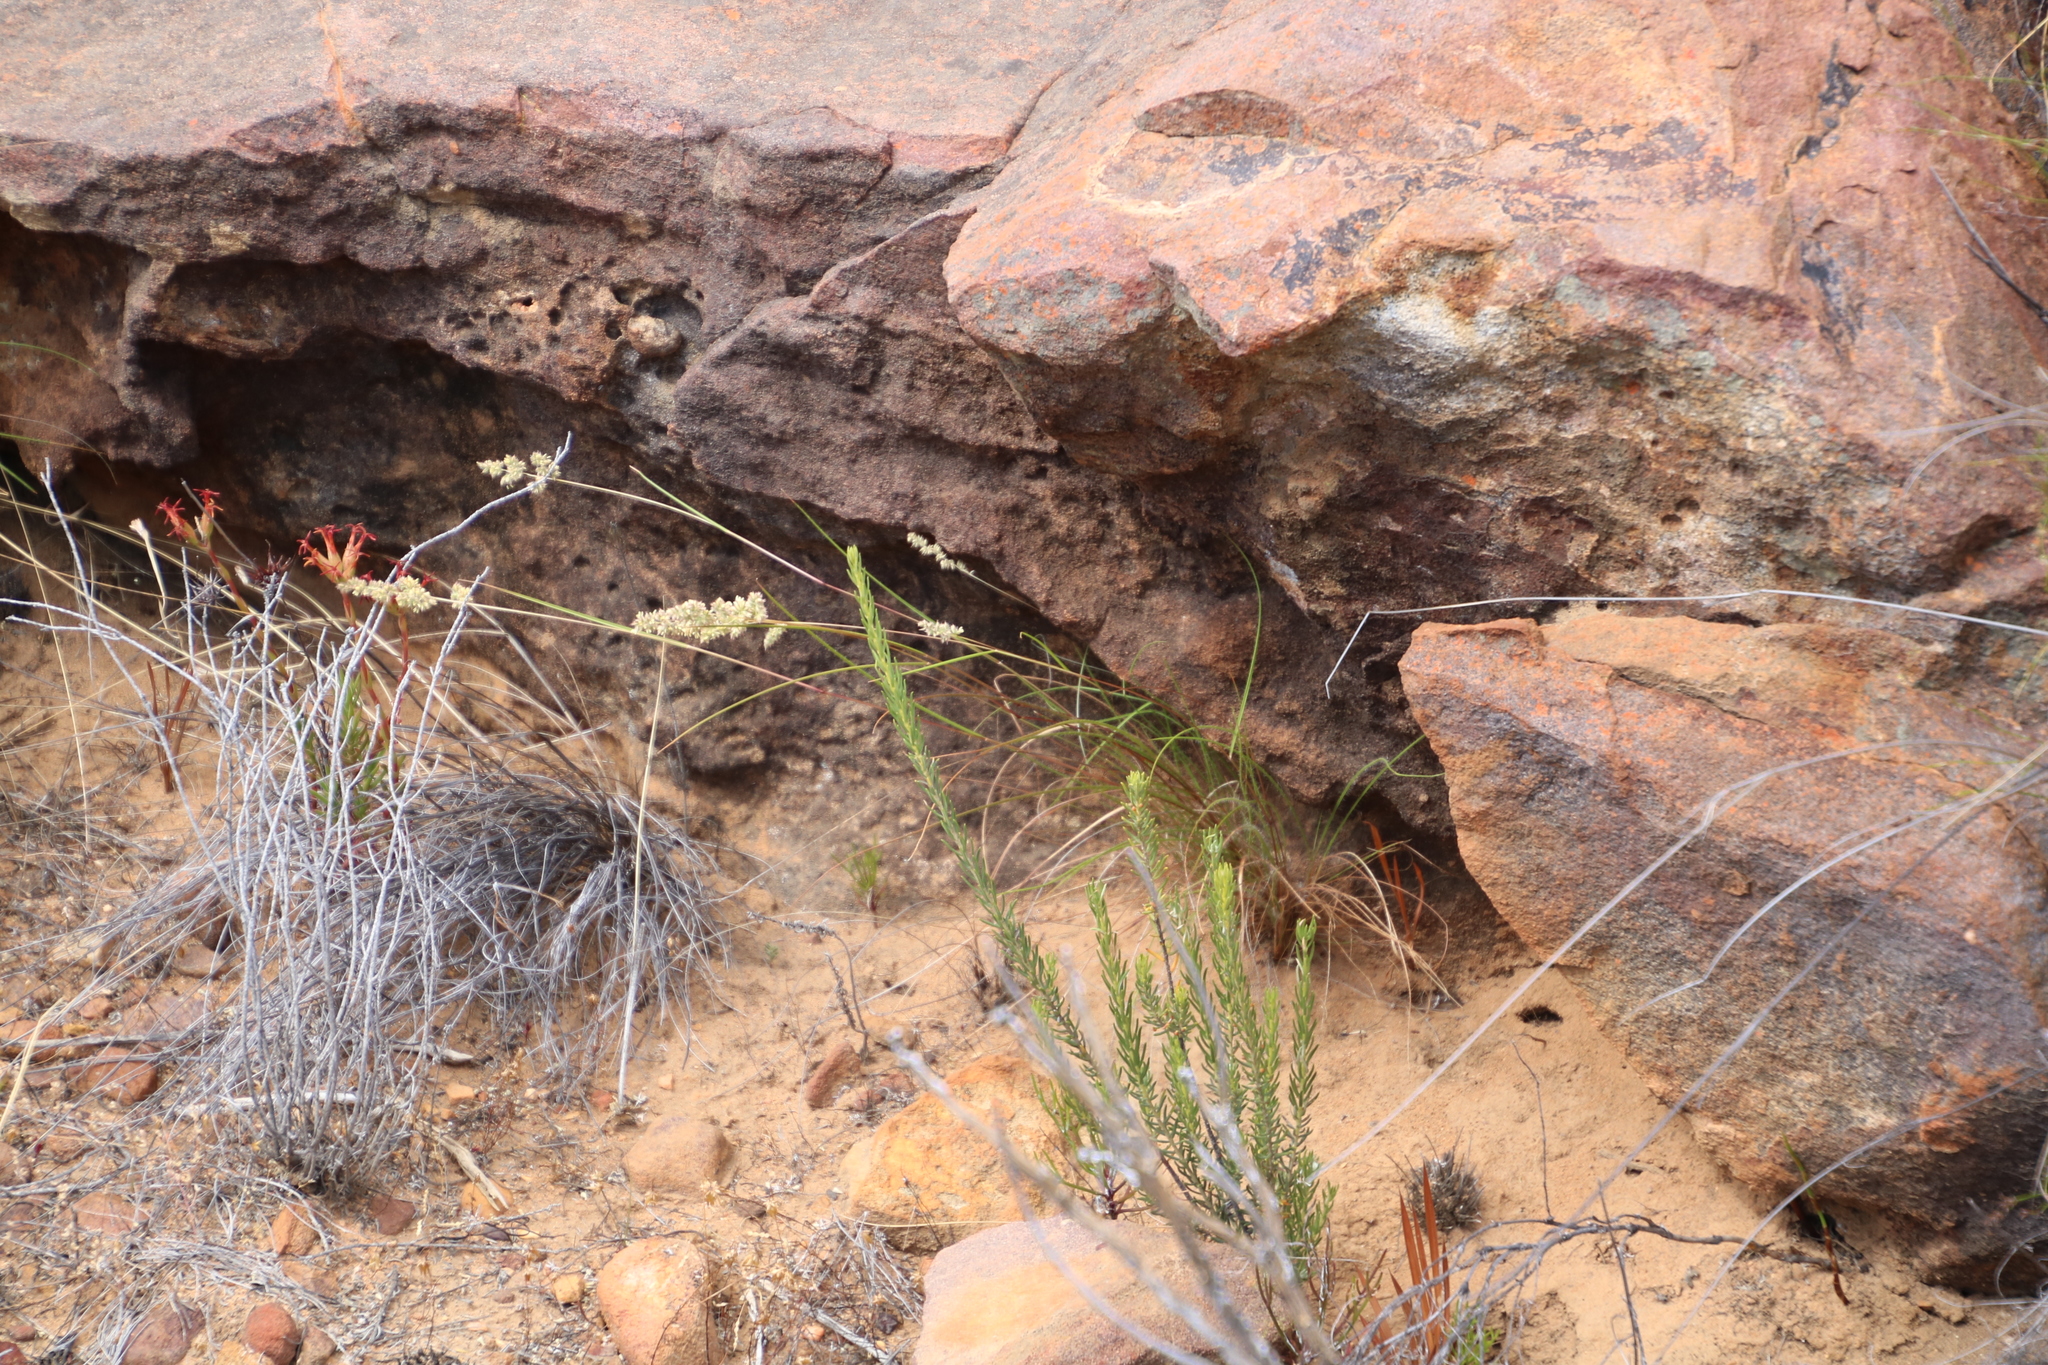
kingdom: Plantae
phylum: Tracheophyta
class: Liliopsida
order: Poales
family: Poaceae
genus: Tribolium
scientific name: Tribolium hispidum
